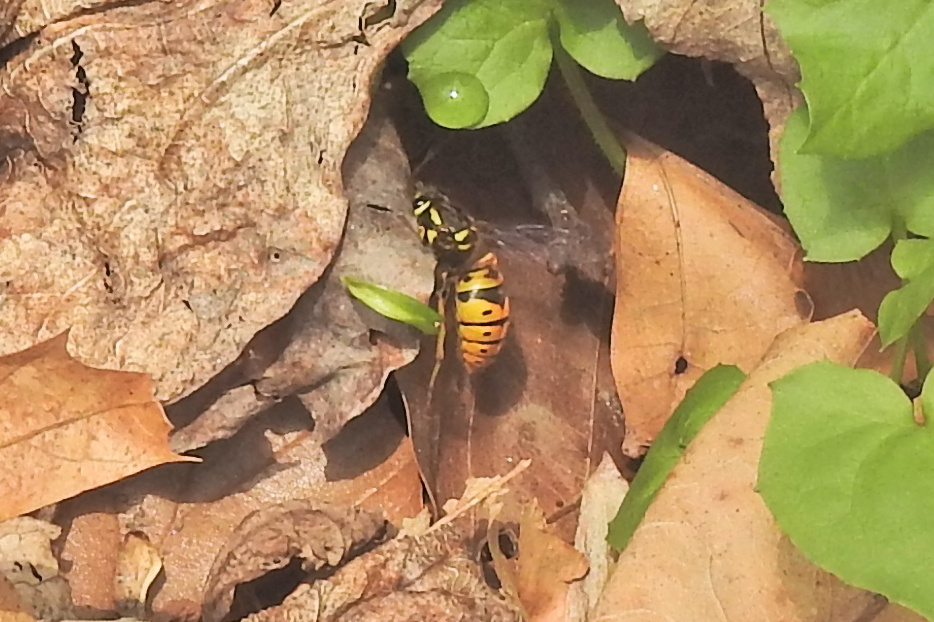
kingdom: Animalia
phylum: Arthropoda
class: Insecta
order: Hymenoptera
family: Vespidae
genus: Vespula
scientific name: Vespula maculifrons
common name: Eastern yellowjacket
